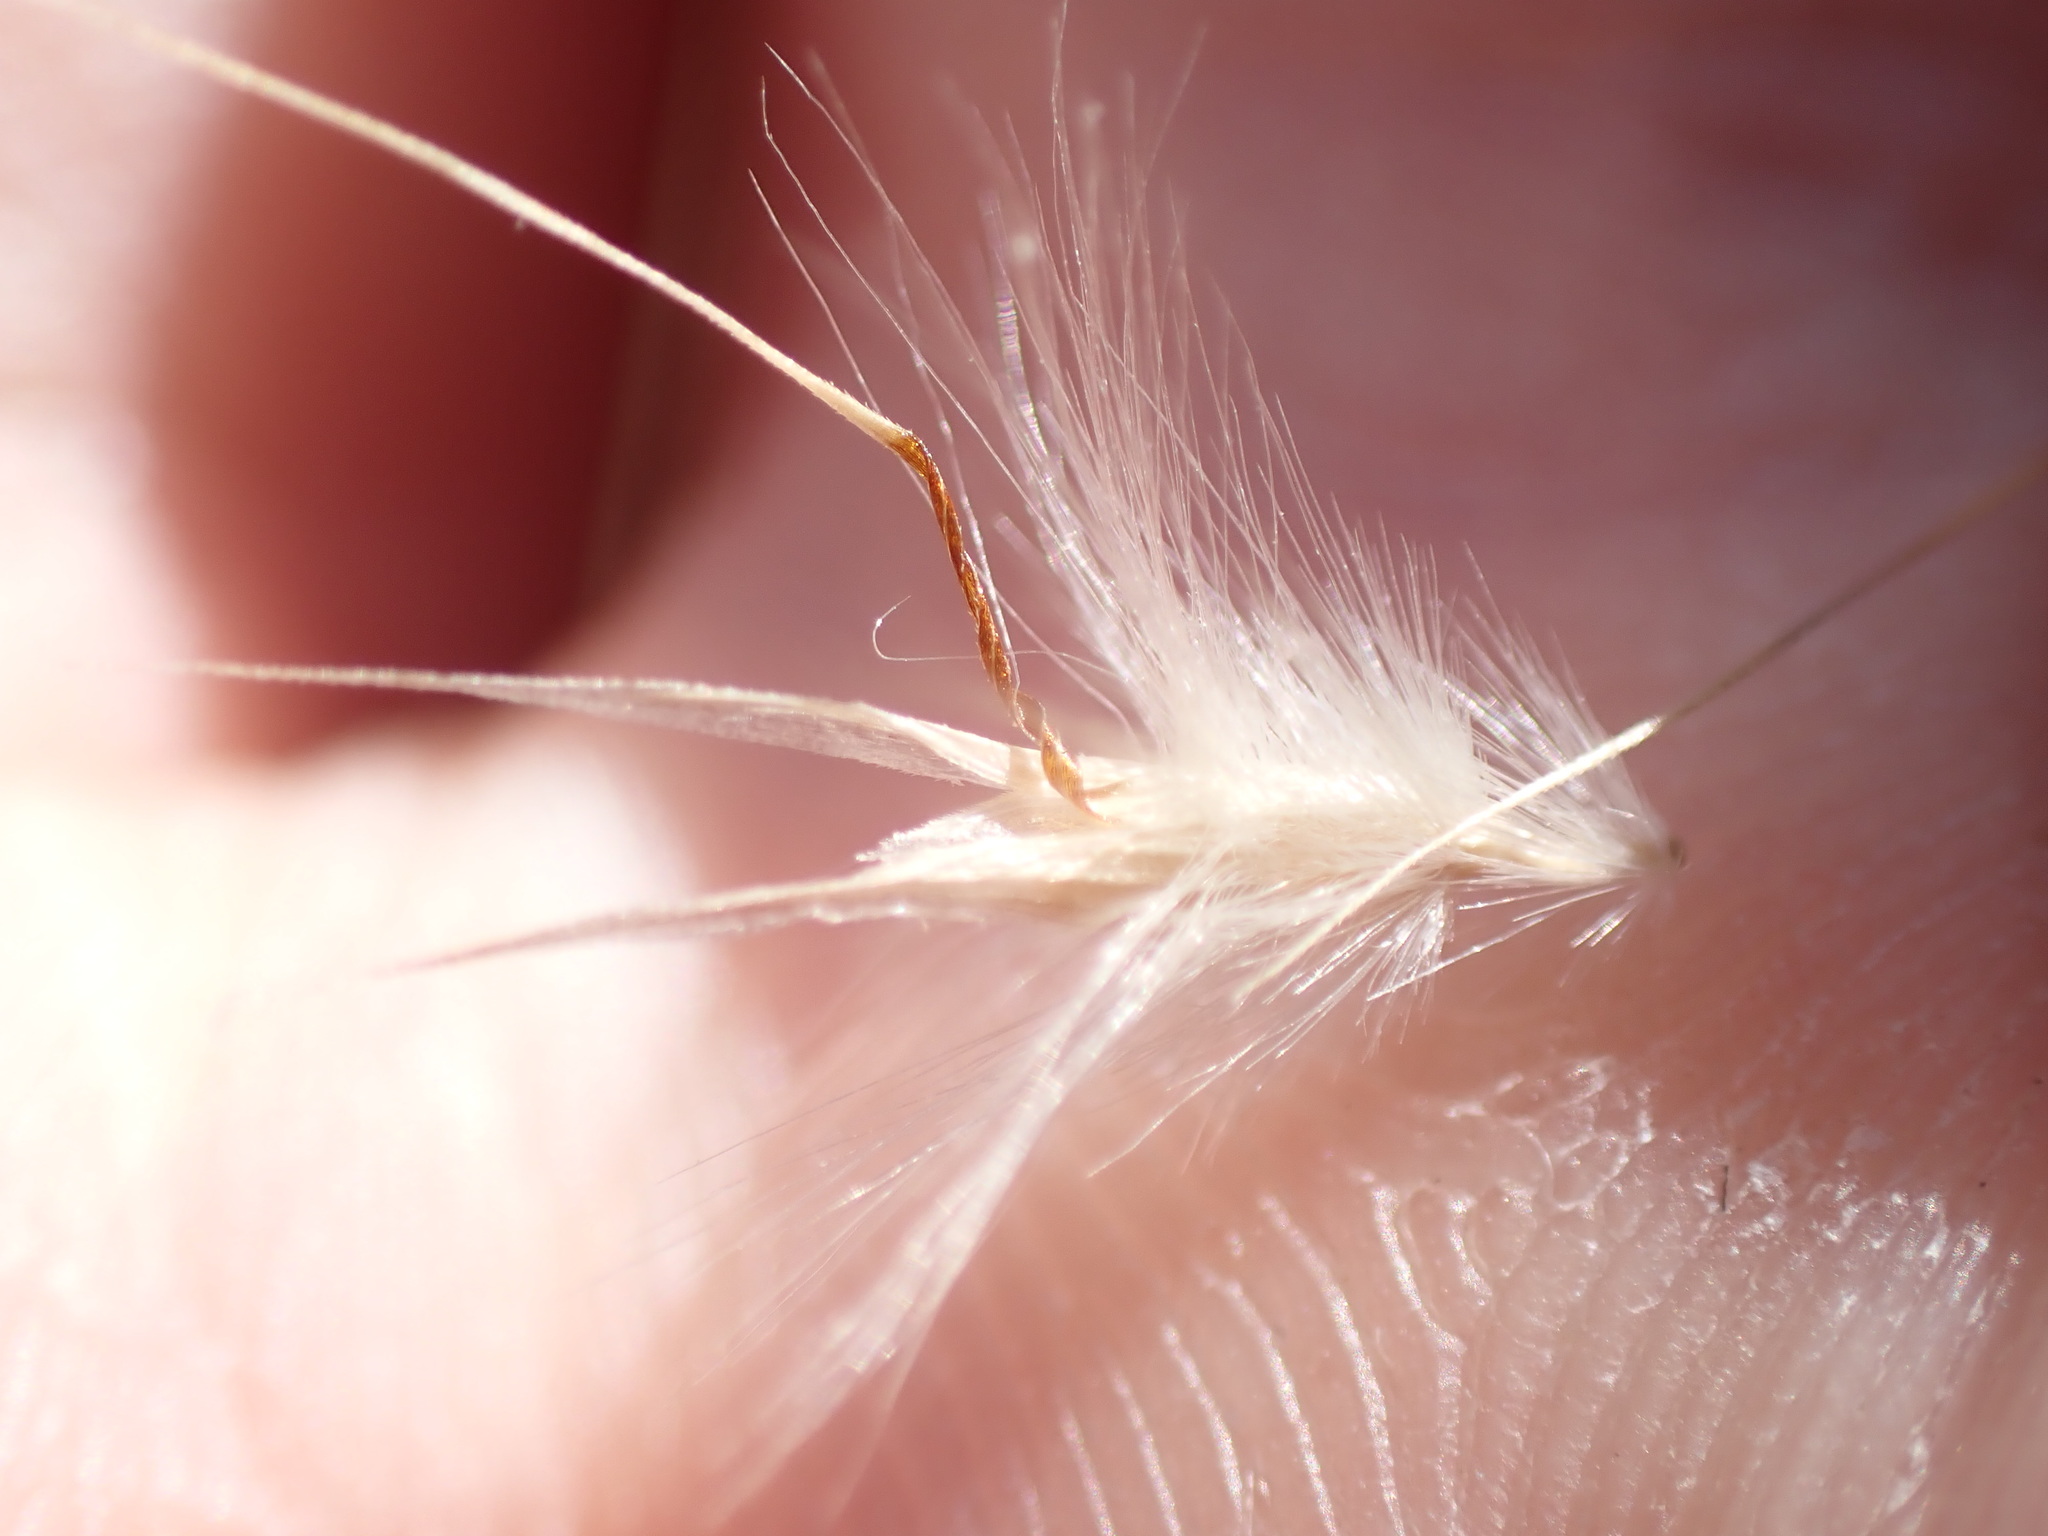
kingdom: Plantae
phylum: Tracheophyta
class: Liliopsida
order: Poales
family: Poaceae
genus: Rytidosperma
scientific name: Rytidosperma fulvum
